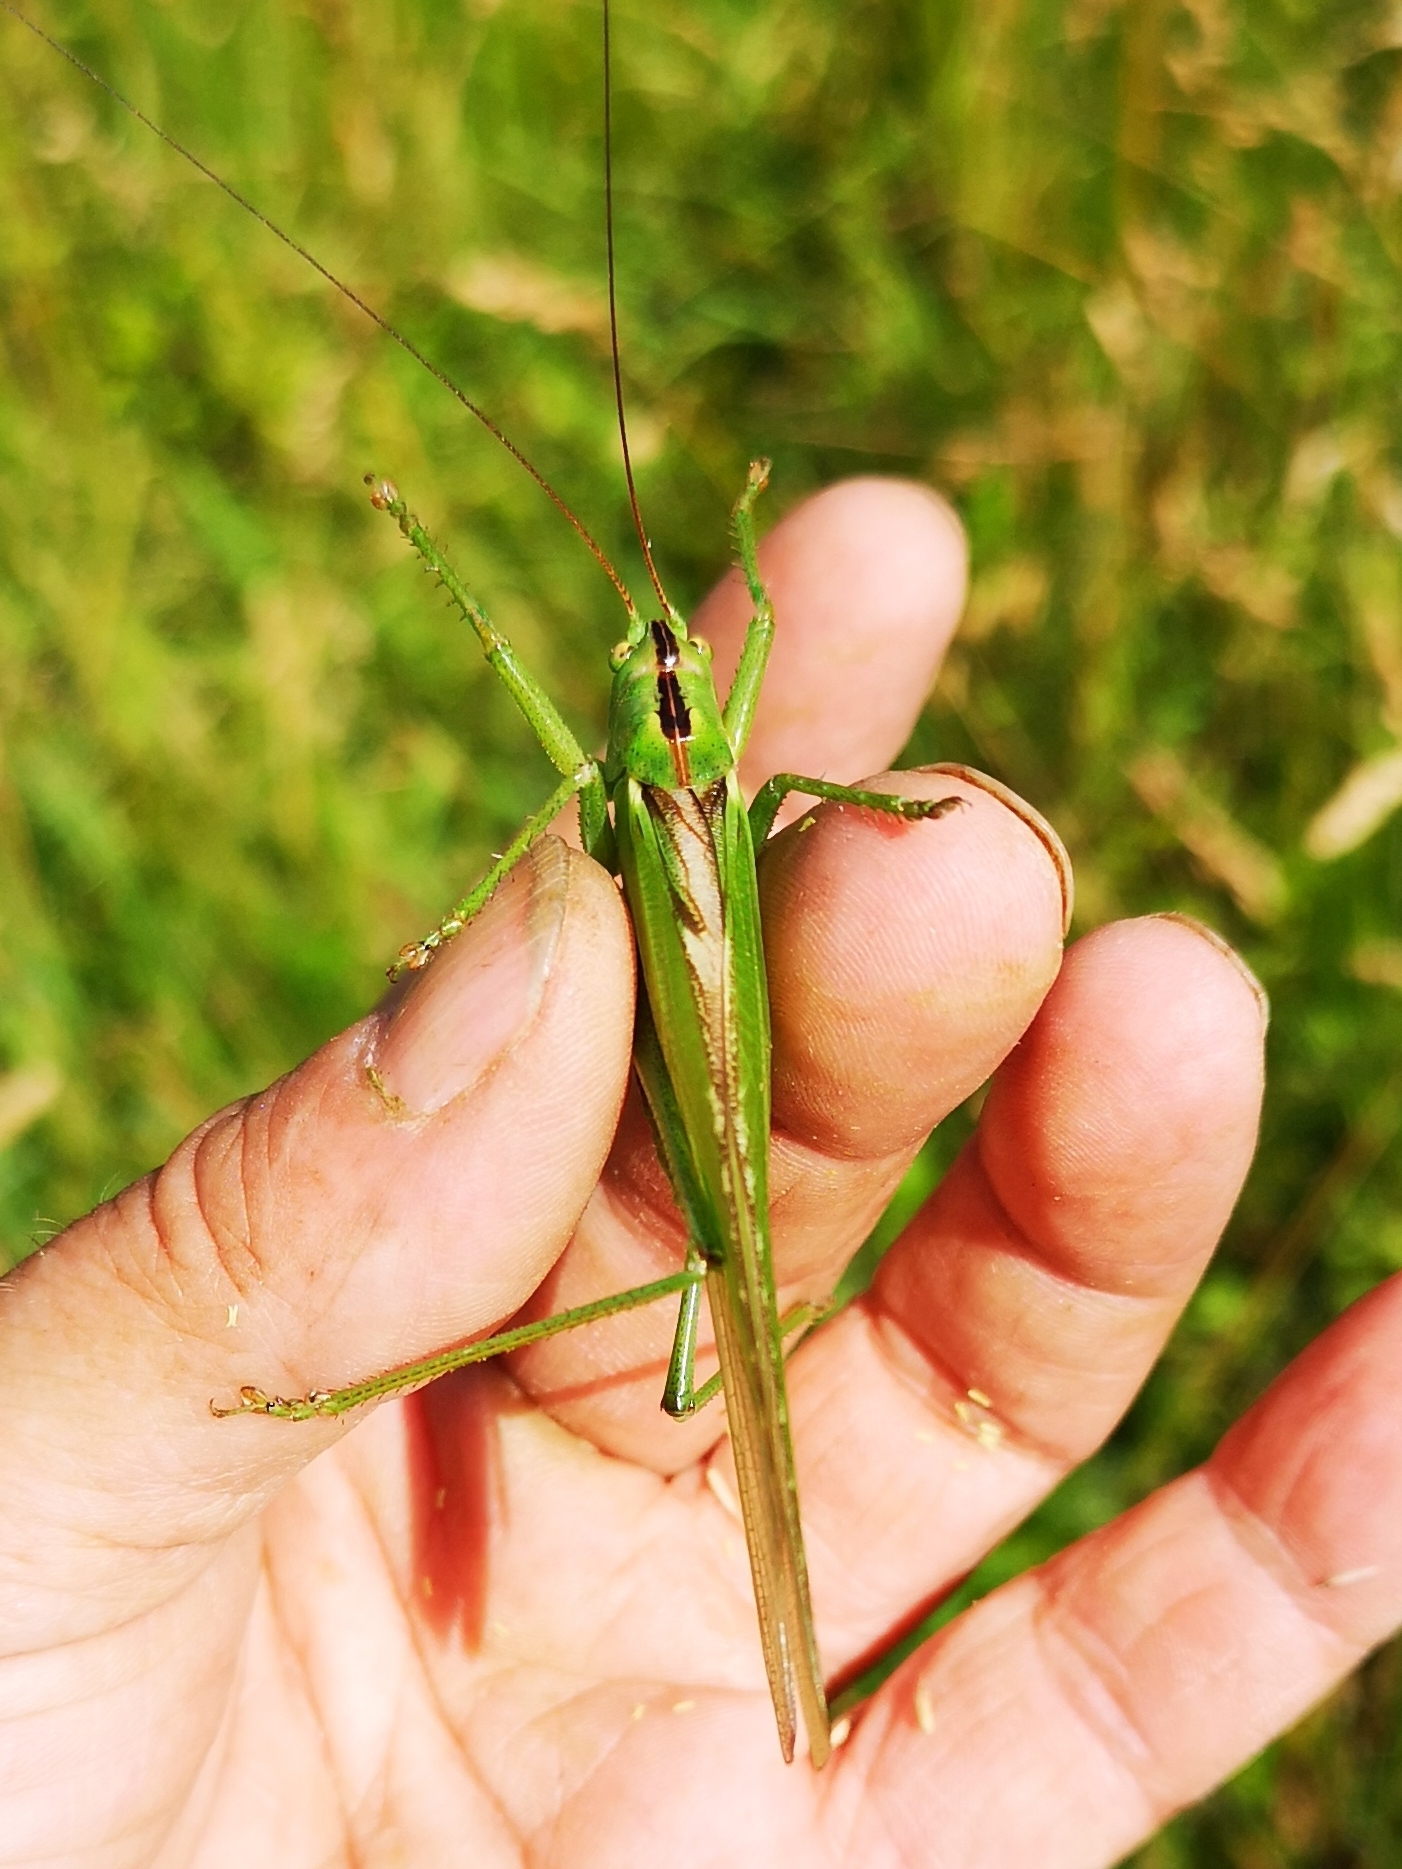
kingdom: Animalia
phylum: Arthropoda
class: Insecta
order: Orthoptera
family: Tettigoniidae
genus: Tettigonia
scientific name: Tettigonia viridissima
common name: Great green bush-cricket
